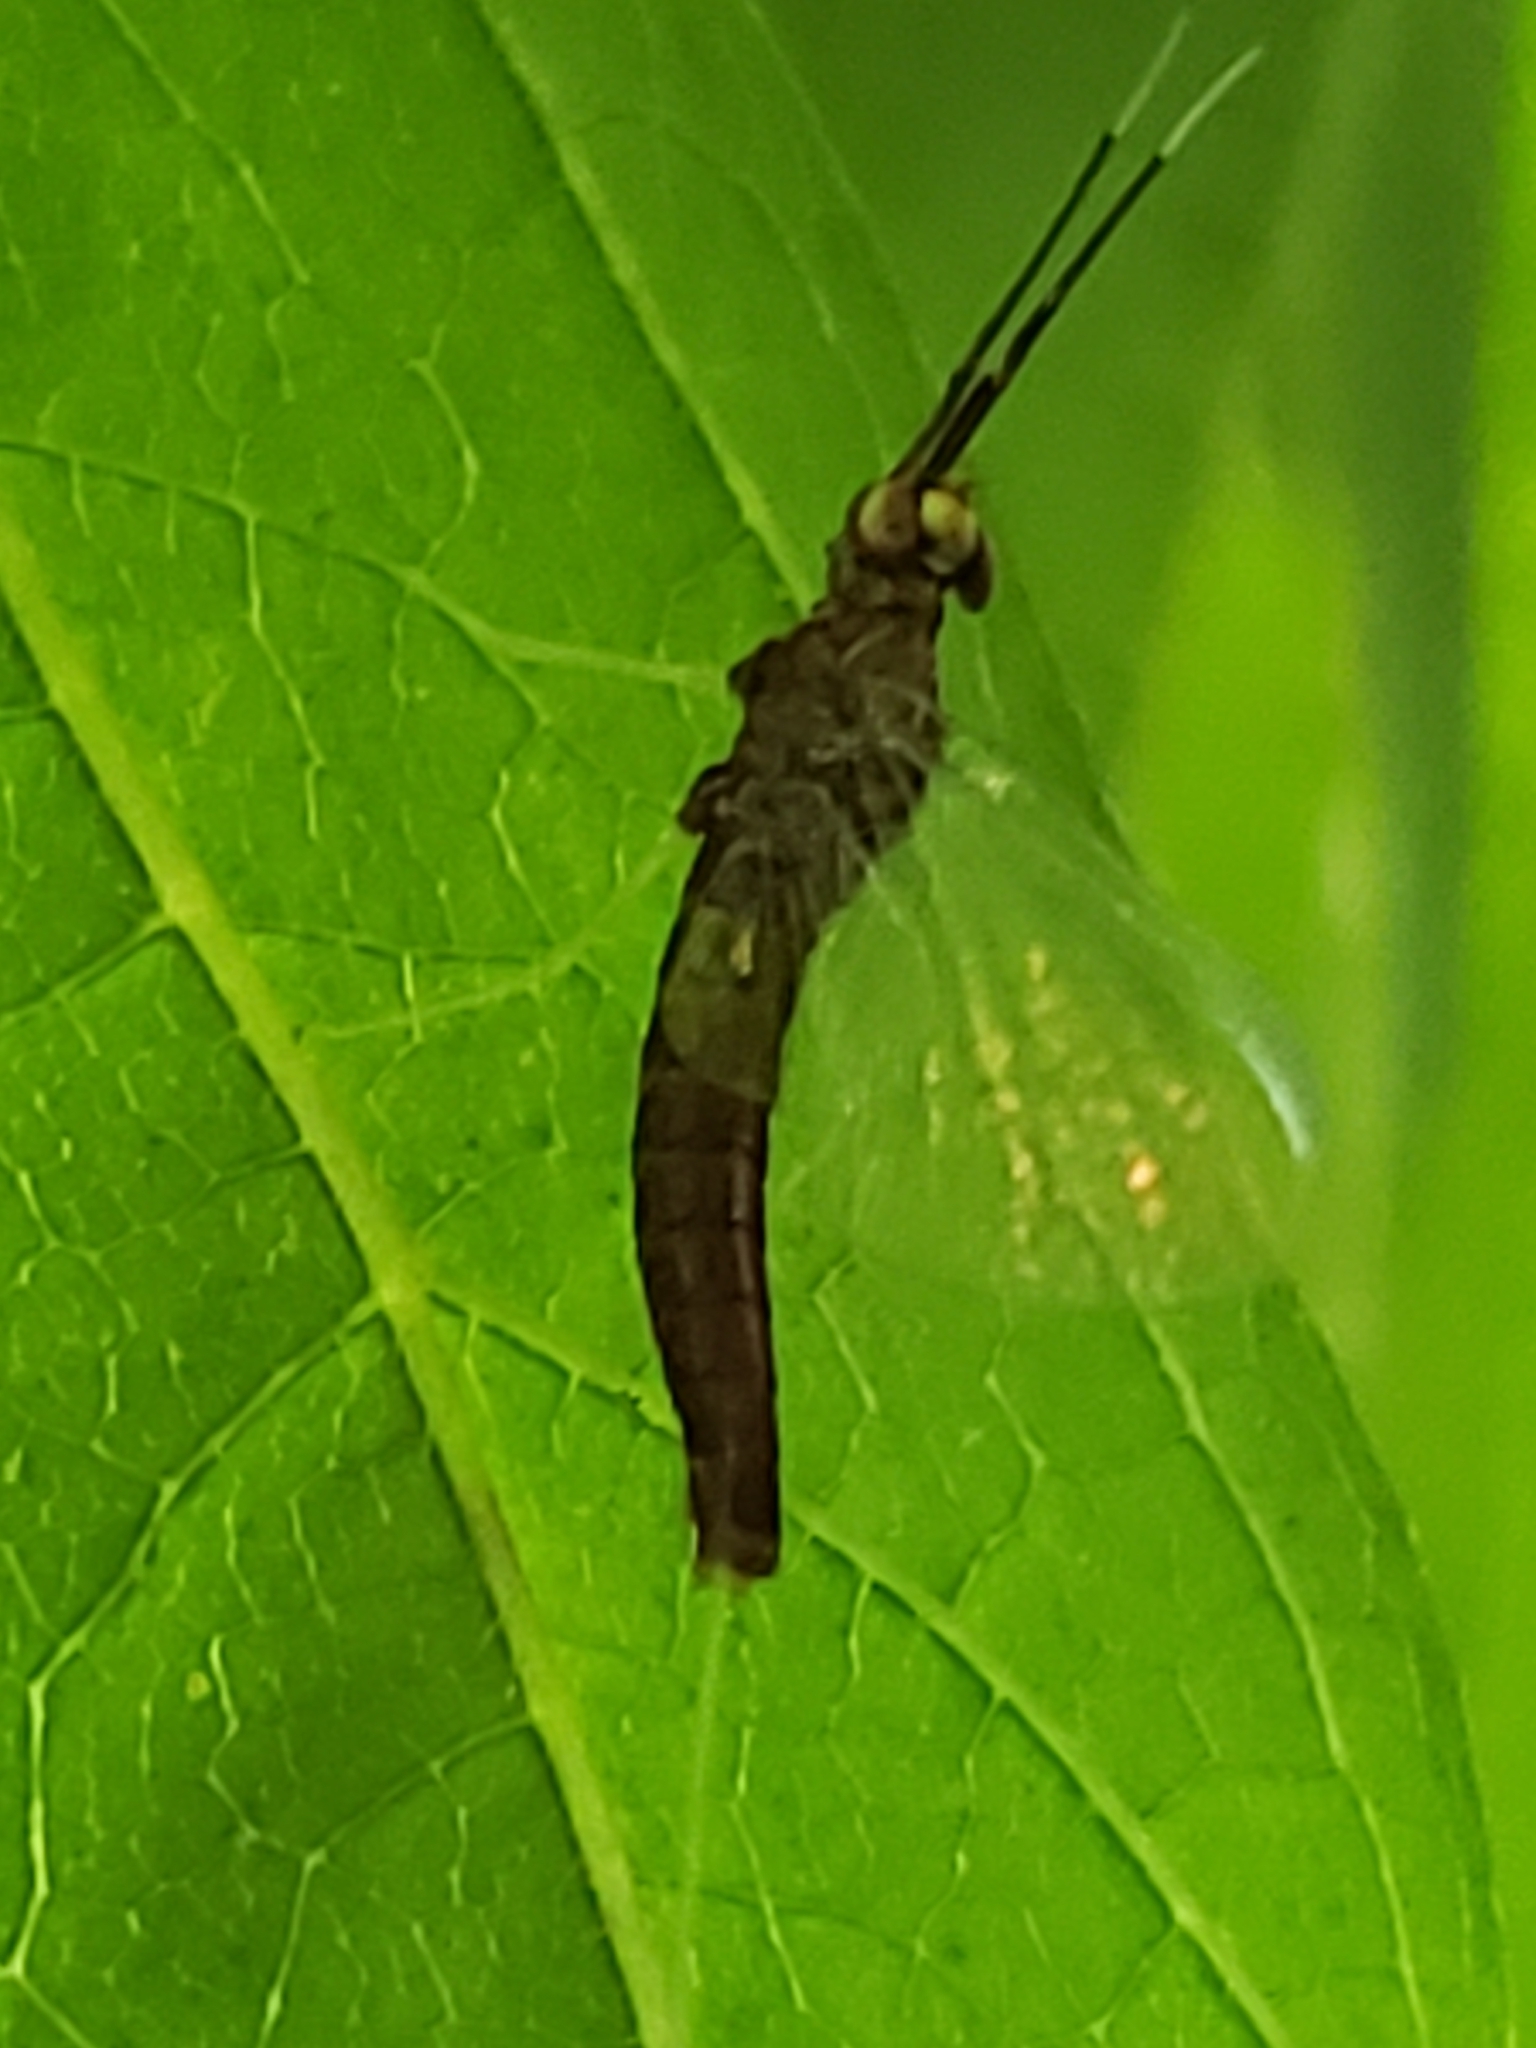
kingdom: Animalia
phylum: Arthropoda
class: Insecta
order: Ephemeroptera
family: Isonychiidae
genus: Isonychia
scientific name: Isonychia bicolor
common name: Mahogany dun
